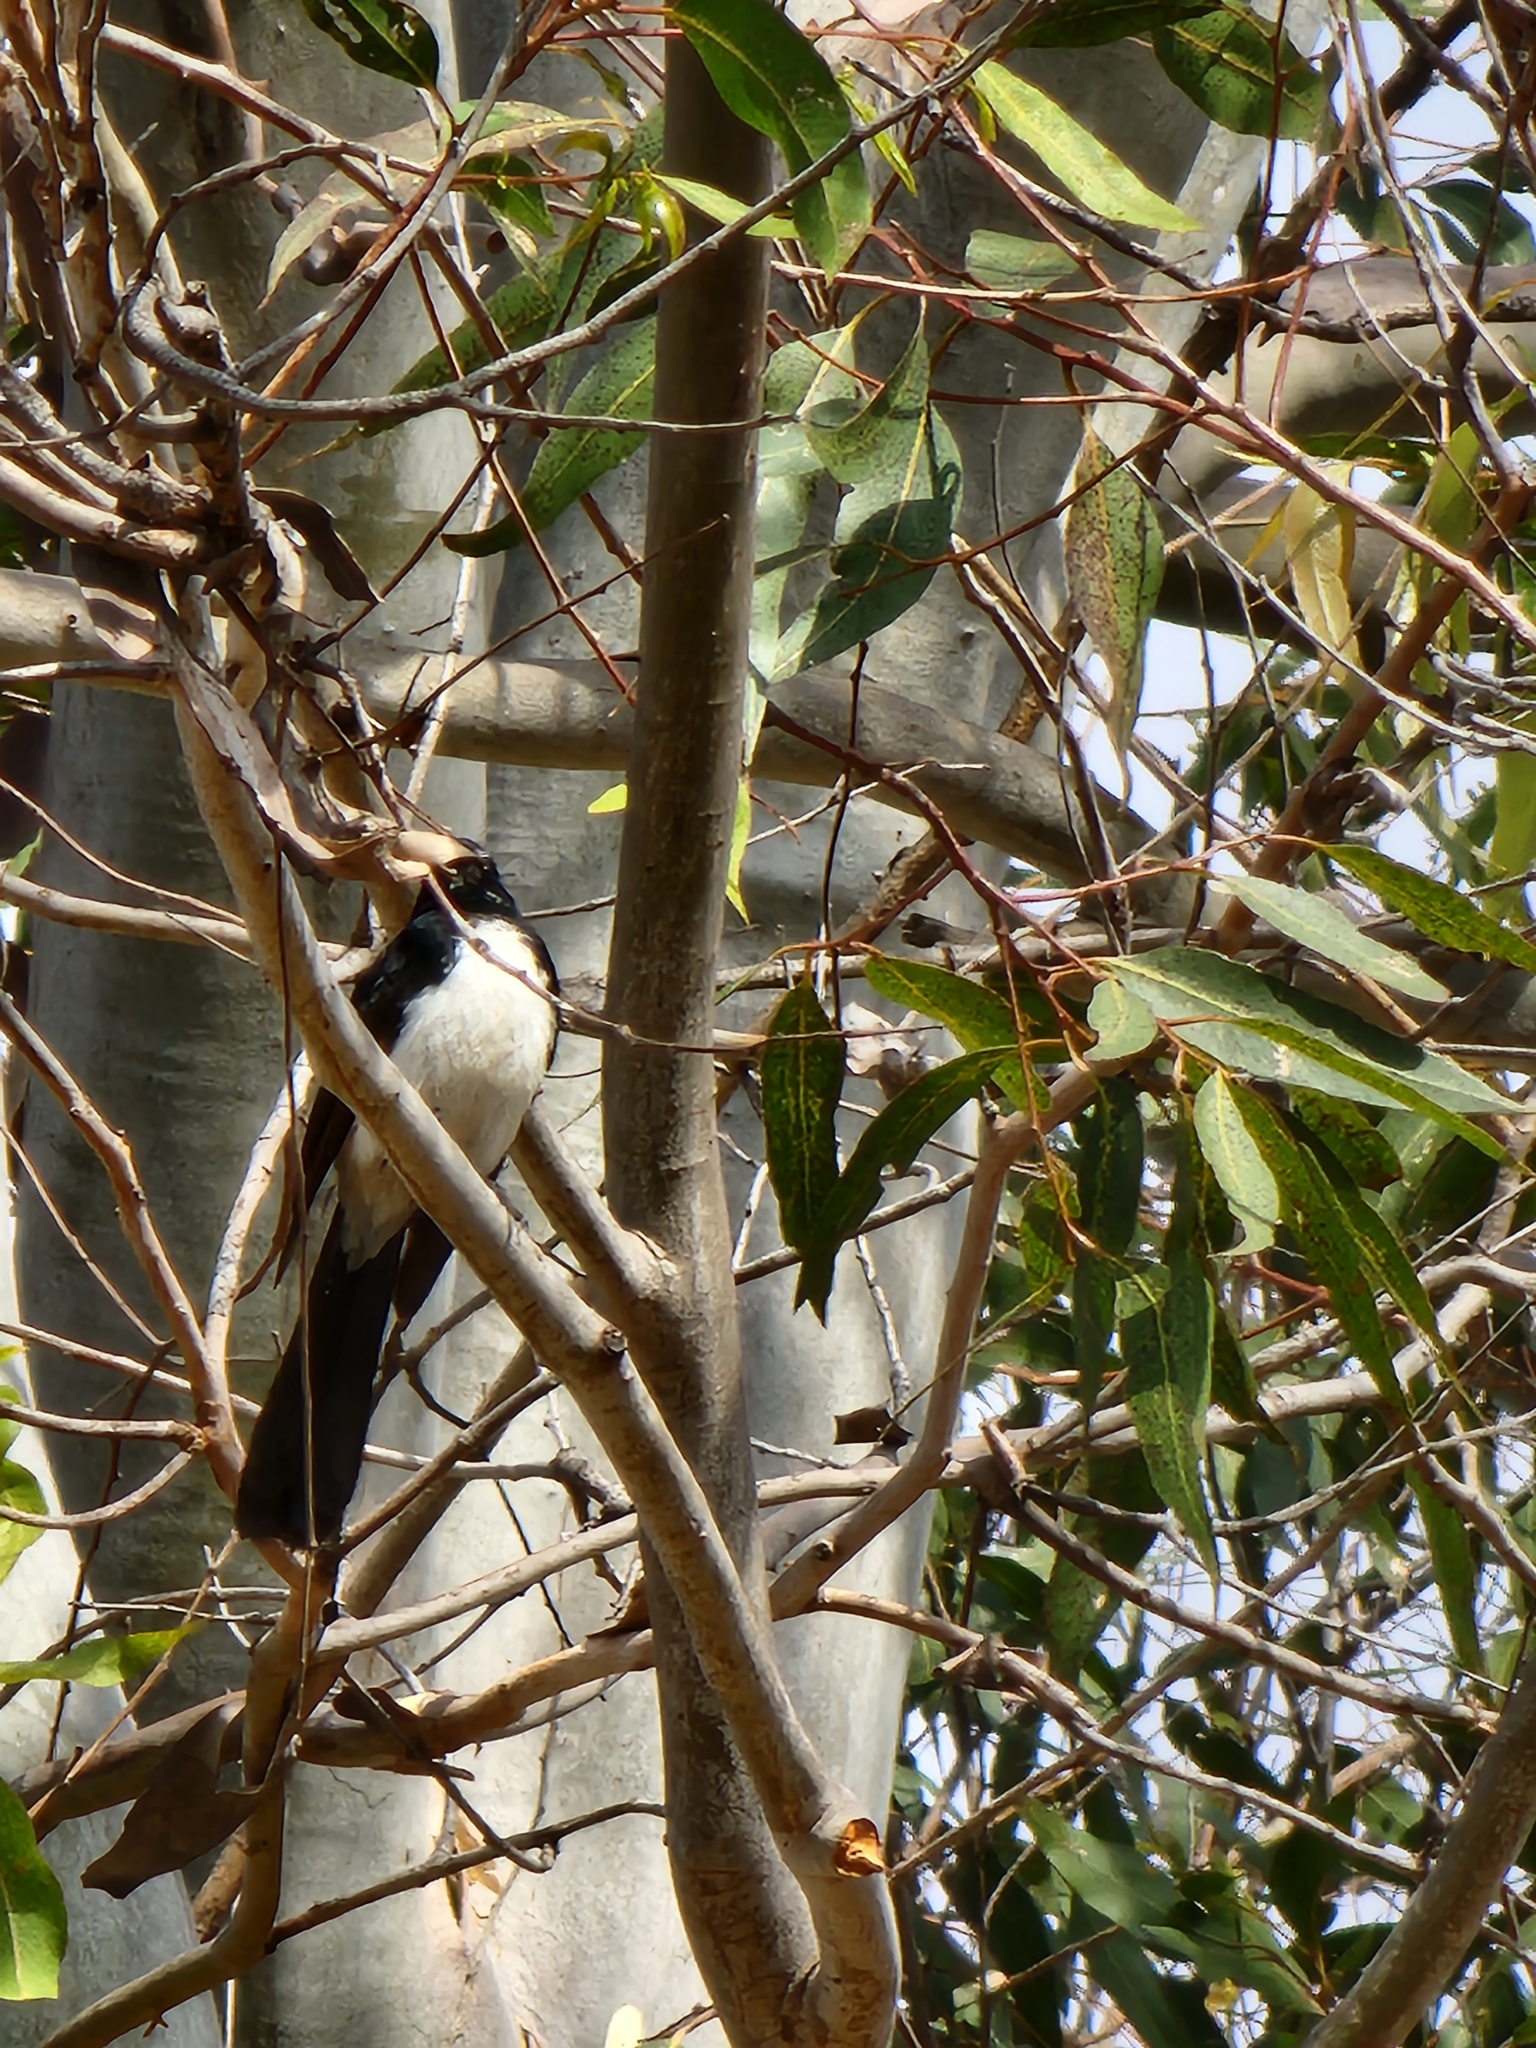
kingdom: Animalia
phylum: Chordata
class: Aves
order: Passeriformes
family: Rhipiduridae
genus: Rhipidura
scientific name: Rhipidura leucophrys
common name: Willie wagtail
